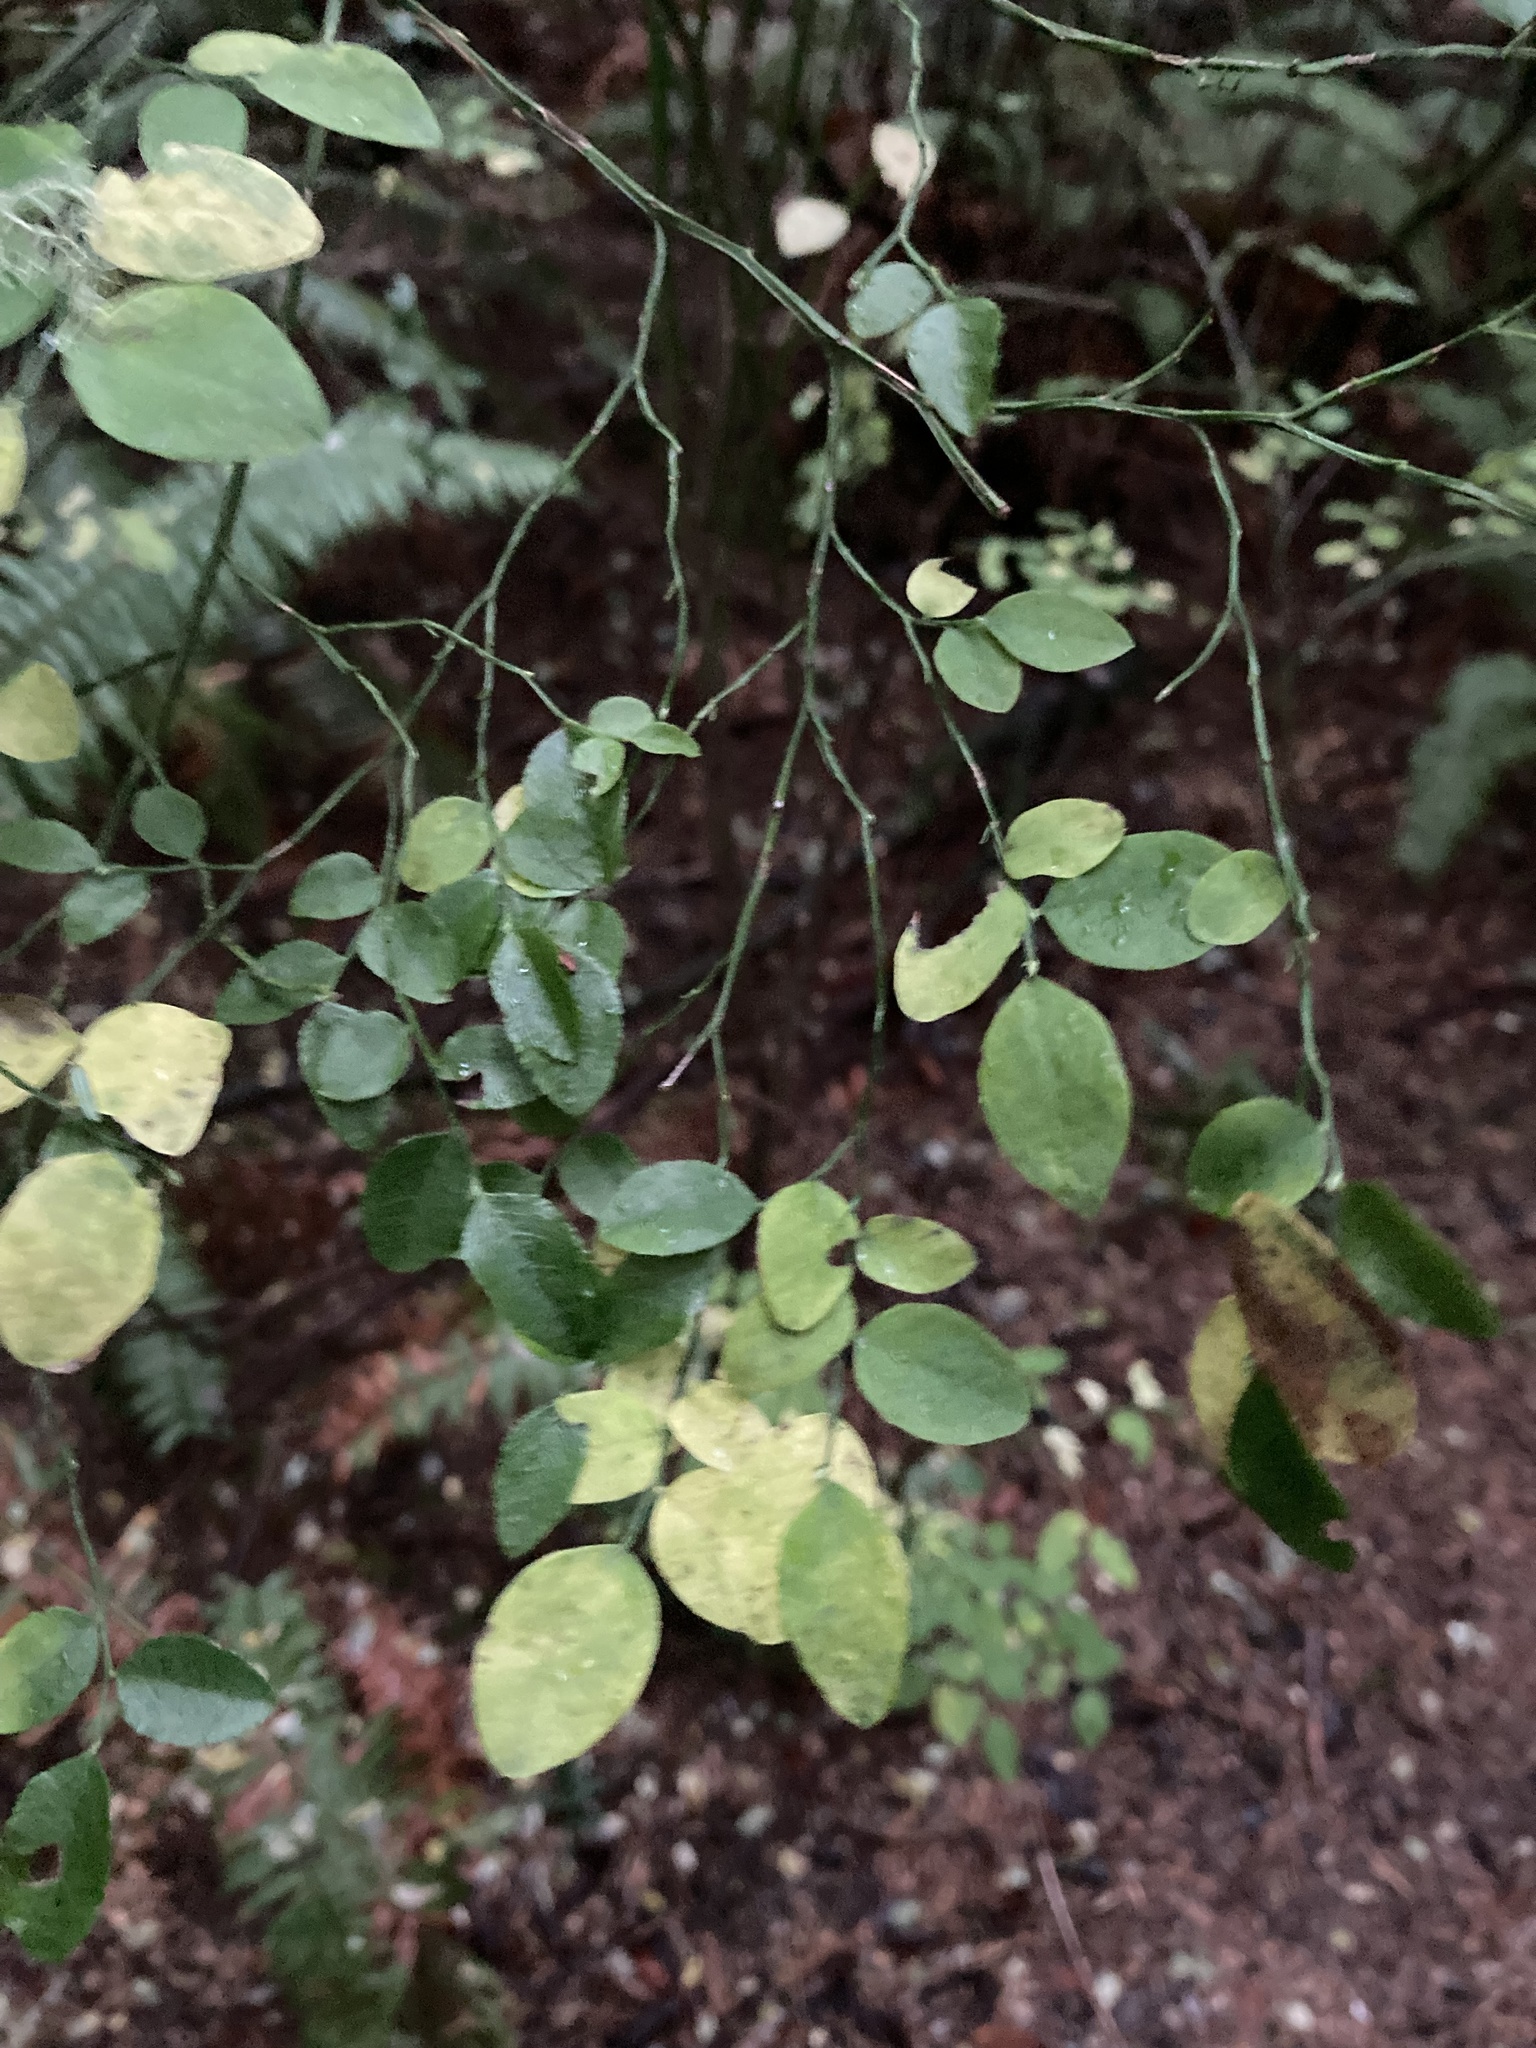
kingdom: Plantae
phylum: Tracheophyta
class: Magnoliopsida
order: Ericales
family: Ericaceae
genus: Vaccinium
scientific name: Vaccinium parvifolium
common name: Red-huckleberry
